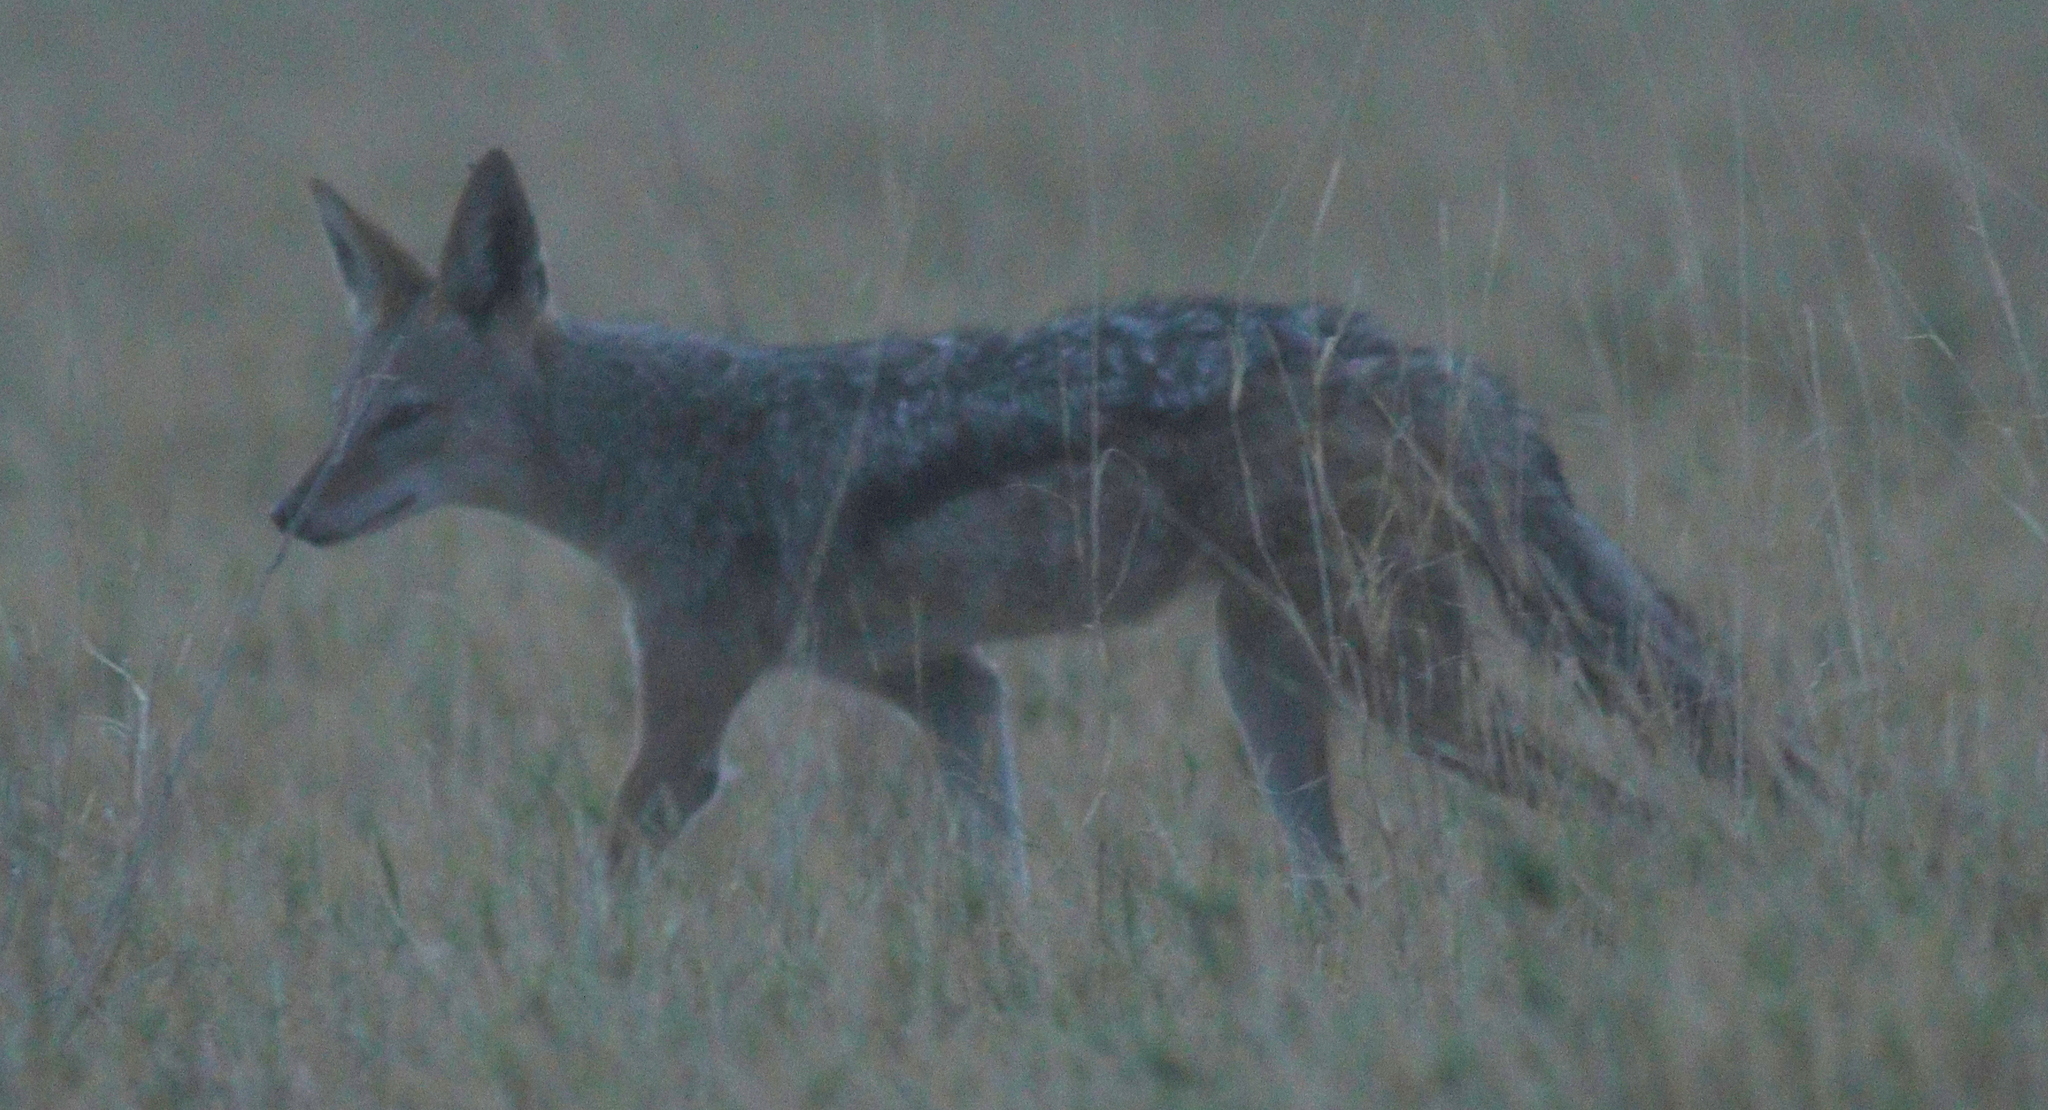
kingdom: Animalia
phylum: Chordata
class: Mammalia
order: Carnivora
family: Canidae
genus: Lupulella
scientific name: Lupulella
